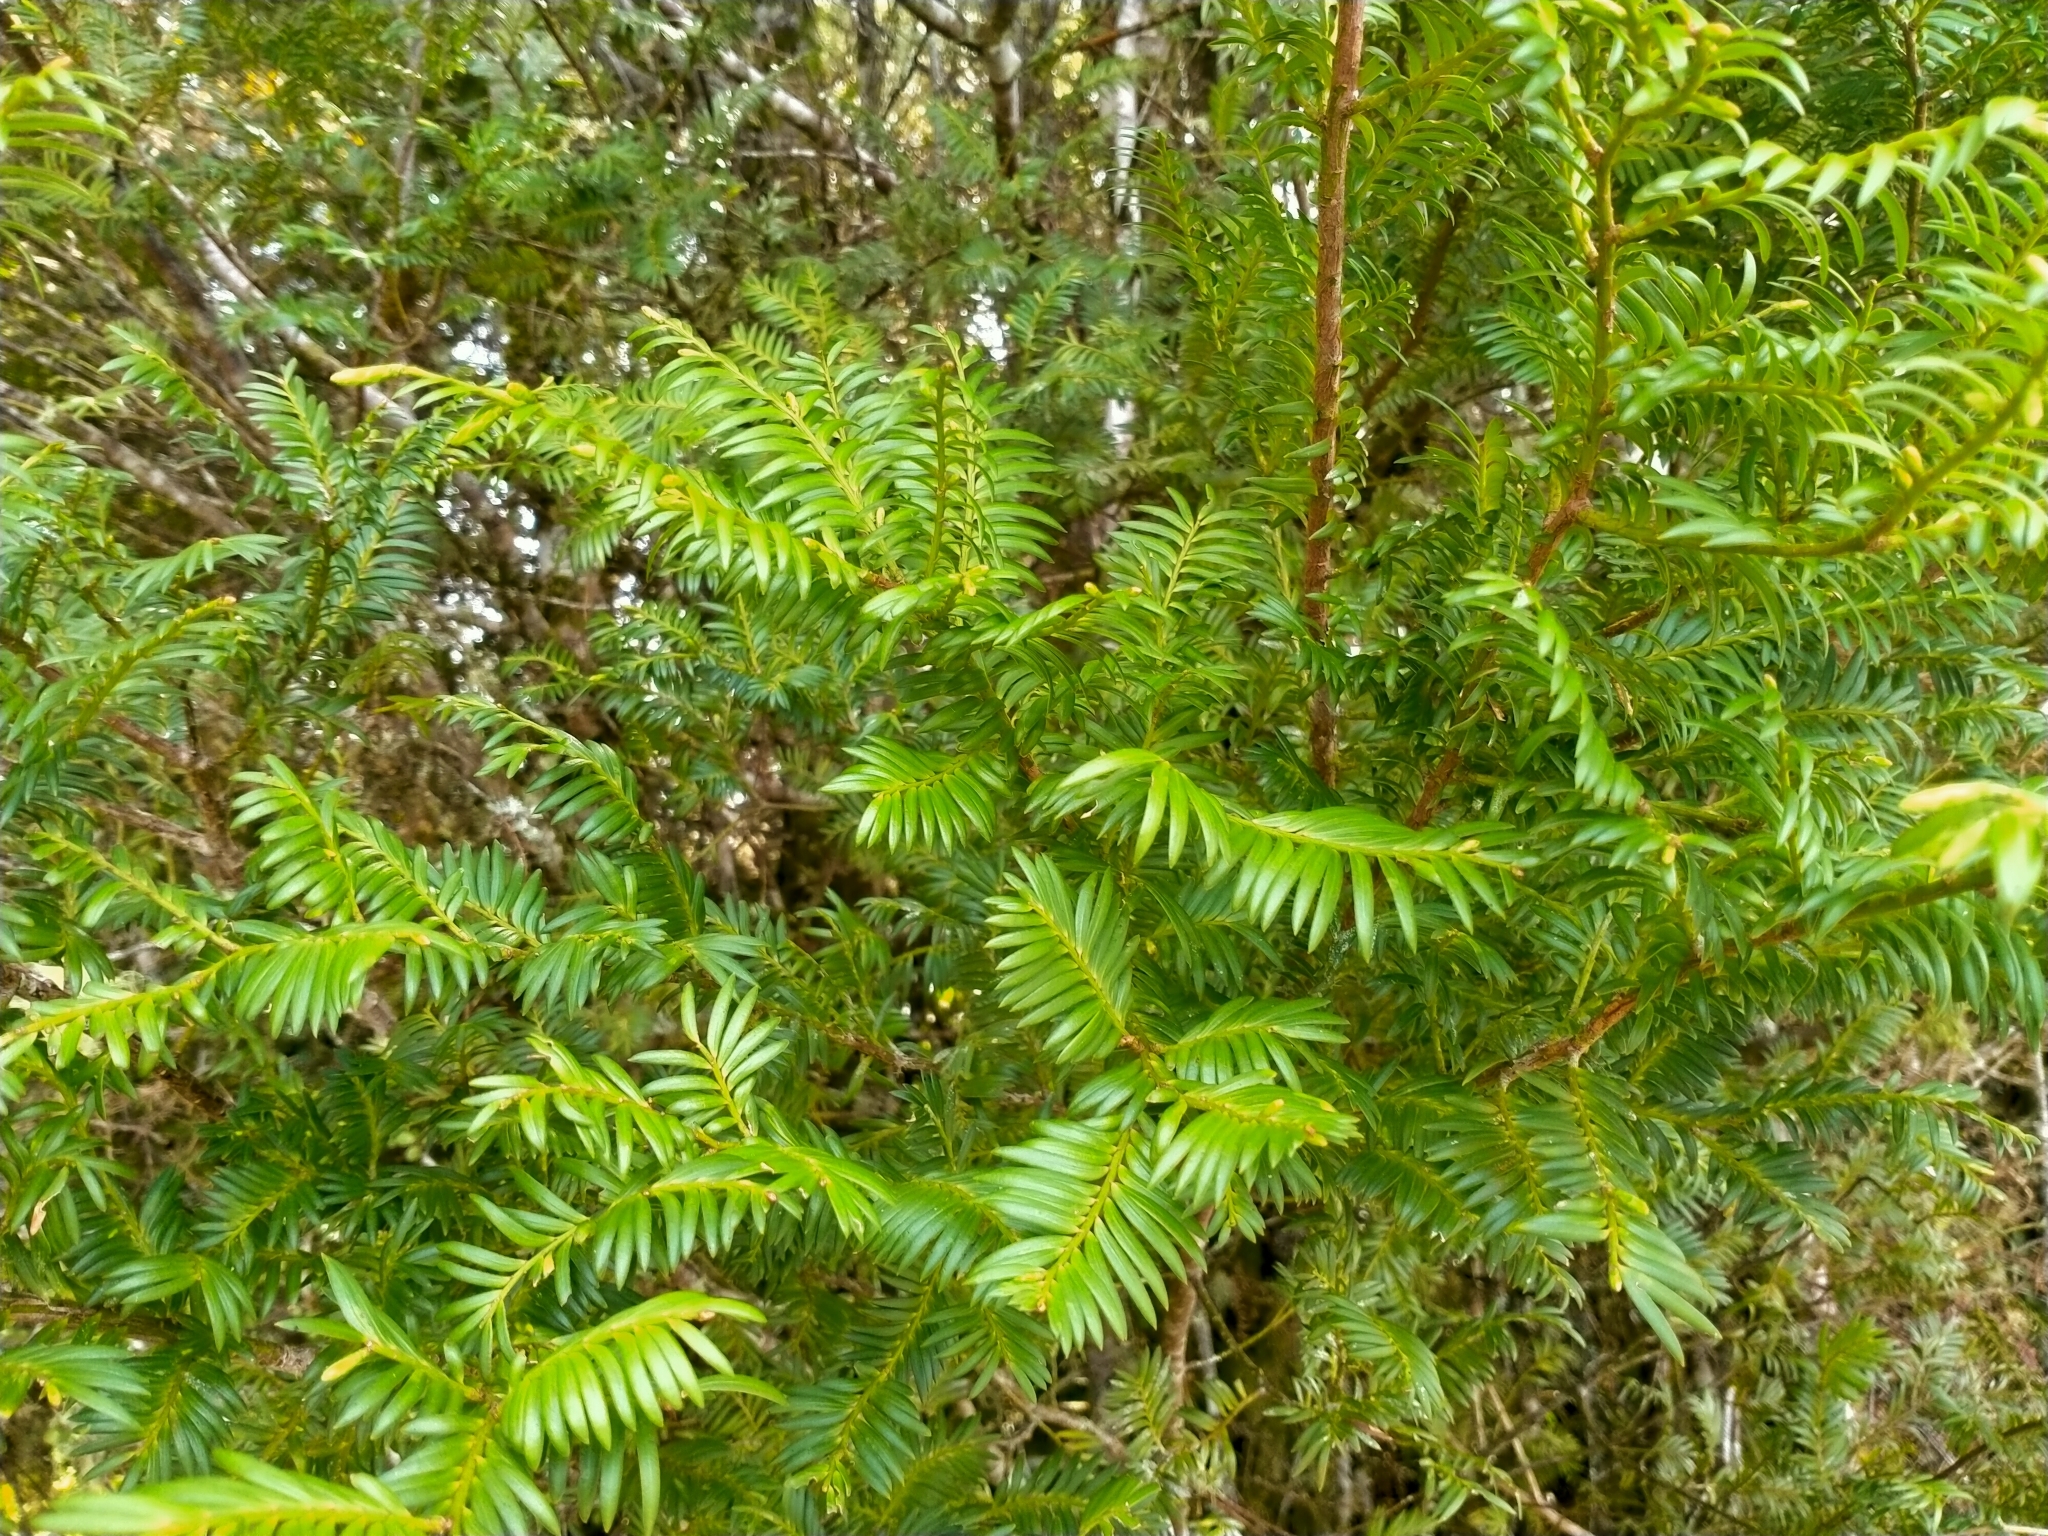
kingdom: Plantae
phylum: Tracheophyta
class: Pinopsida
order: Pinales
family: Podocarpaceae
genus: Prumnopitys
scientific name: Prumnopitys ferruginea
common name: Brown pine
